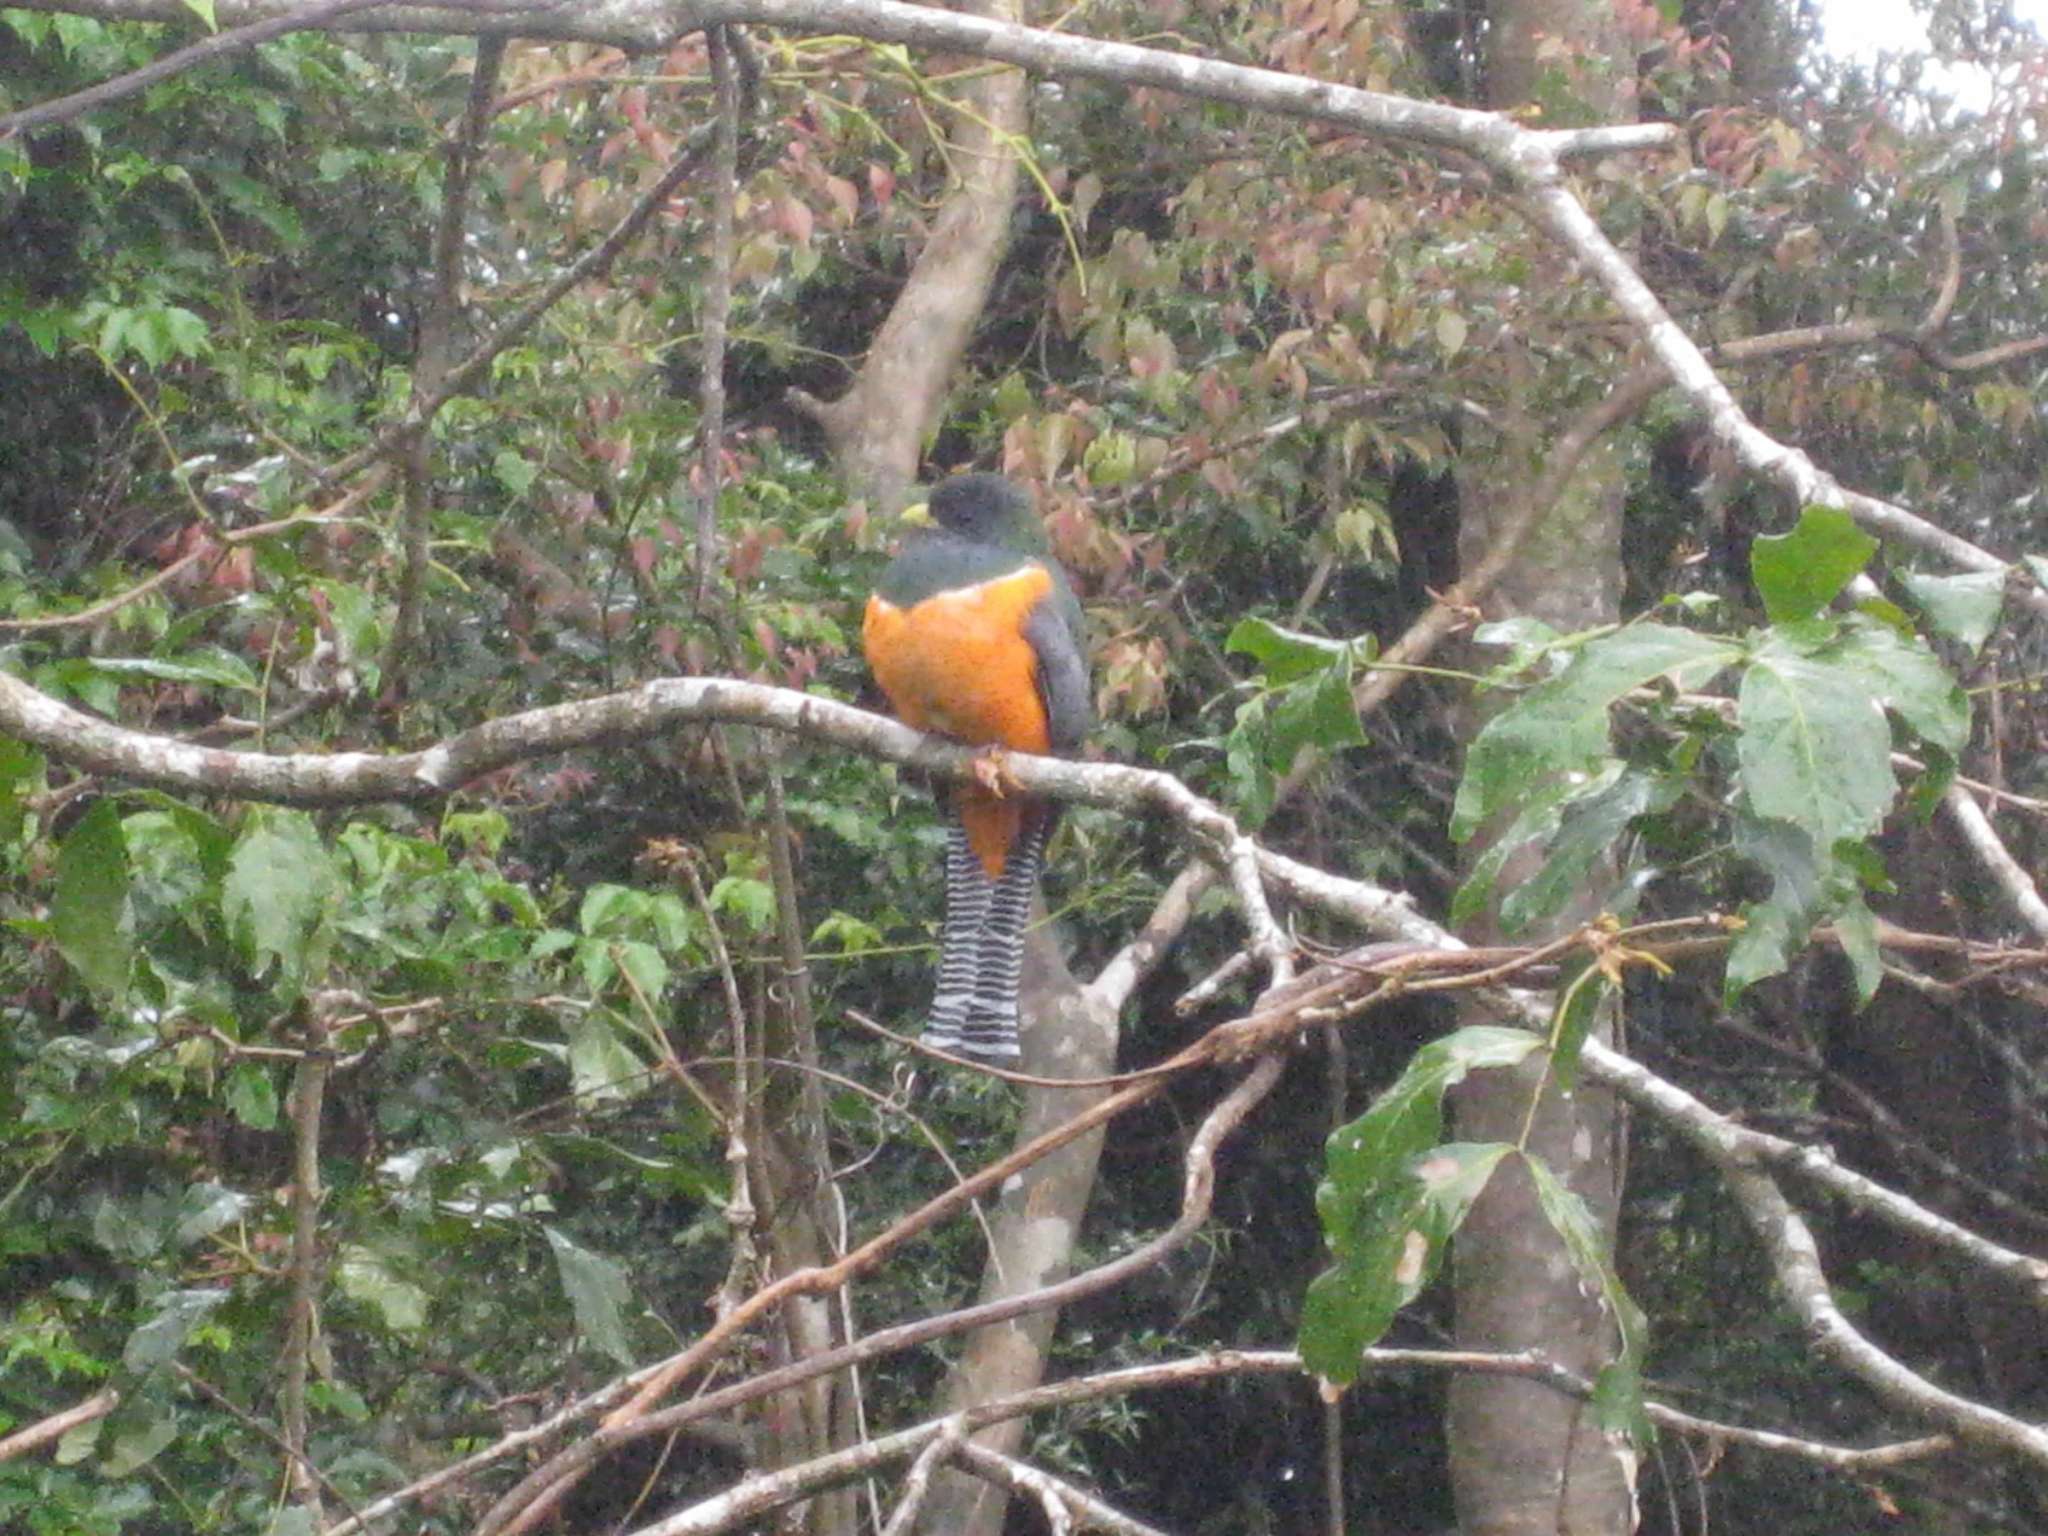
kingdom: Animalia
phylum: Chordata
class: Aves
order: Trogoniformes
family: Trogonidae
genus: Trogon
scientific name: Trogon collaris
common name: Collared trogon
